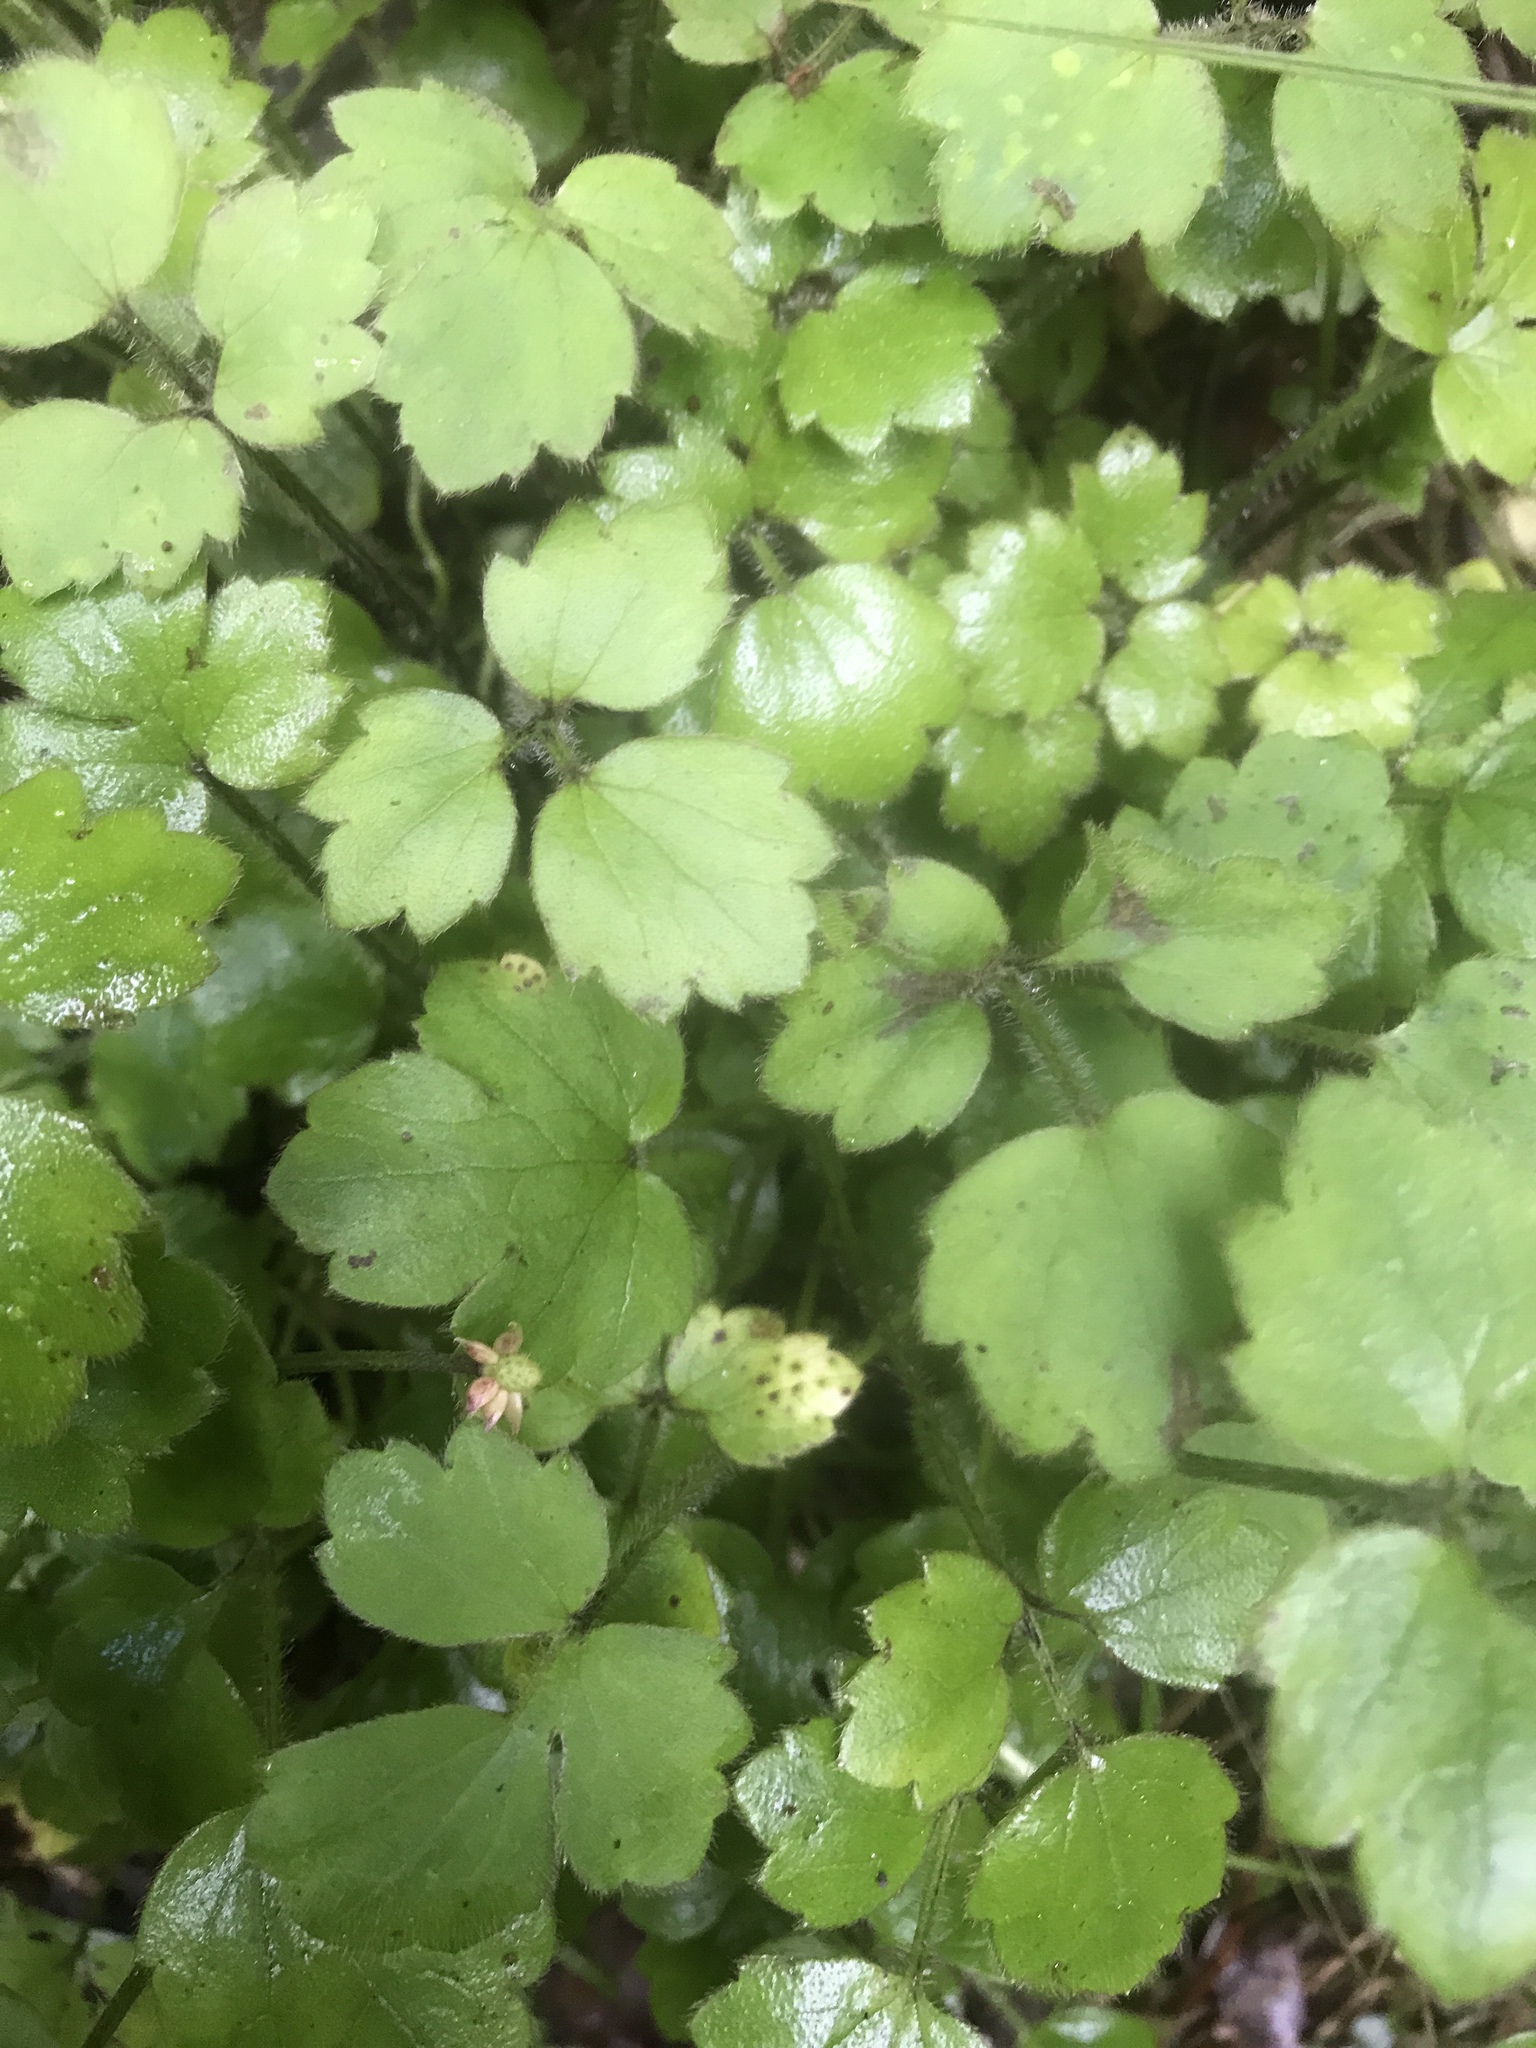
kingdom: Plantae
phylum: Tracheophyta
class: Magnoliopsida
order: Ranunculales
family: Ranunculaceae
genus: Ranunculus
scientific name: Ranunculus reflexus
